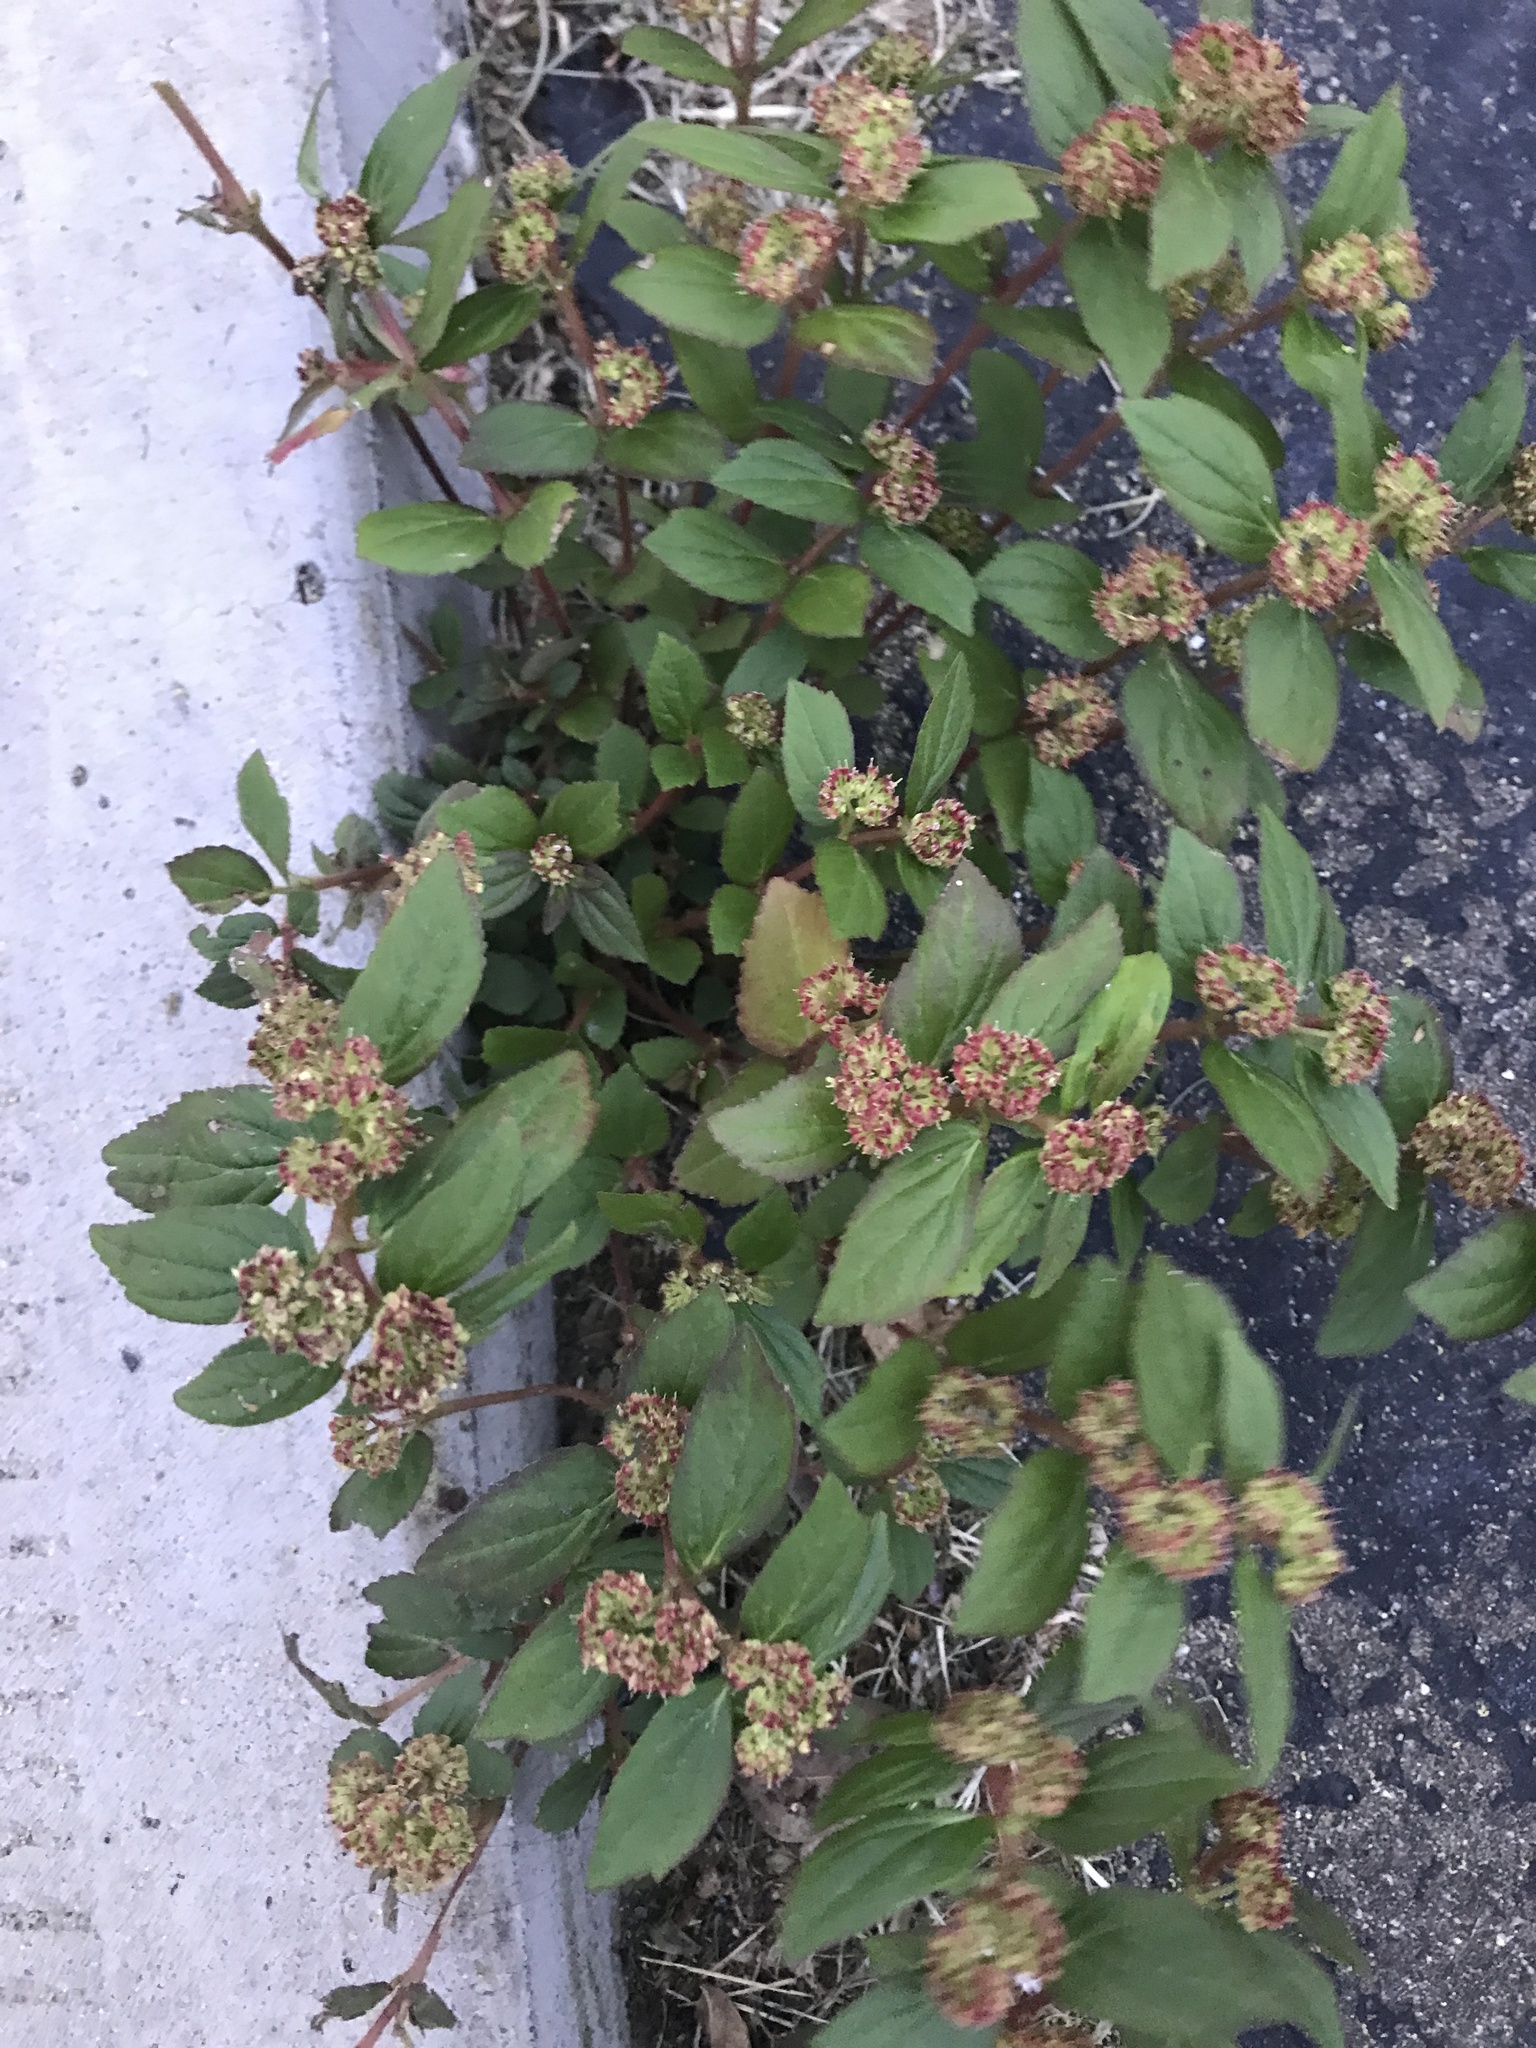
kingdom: Plantae
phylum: Tracheophyta
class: Magnoliopsida
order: Malpighiales
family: Euphorbiaceae
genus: Euphorbia
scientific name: Euphorbia hirta
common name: Pillpod sandmat
